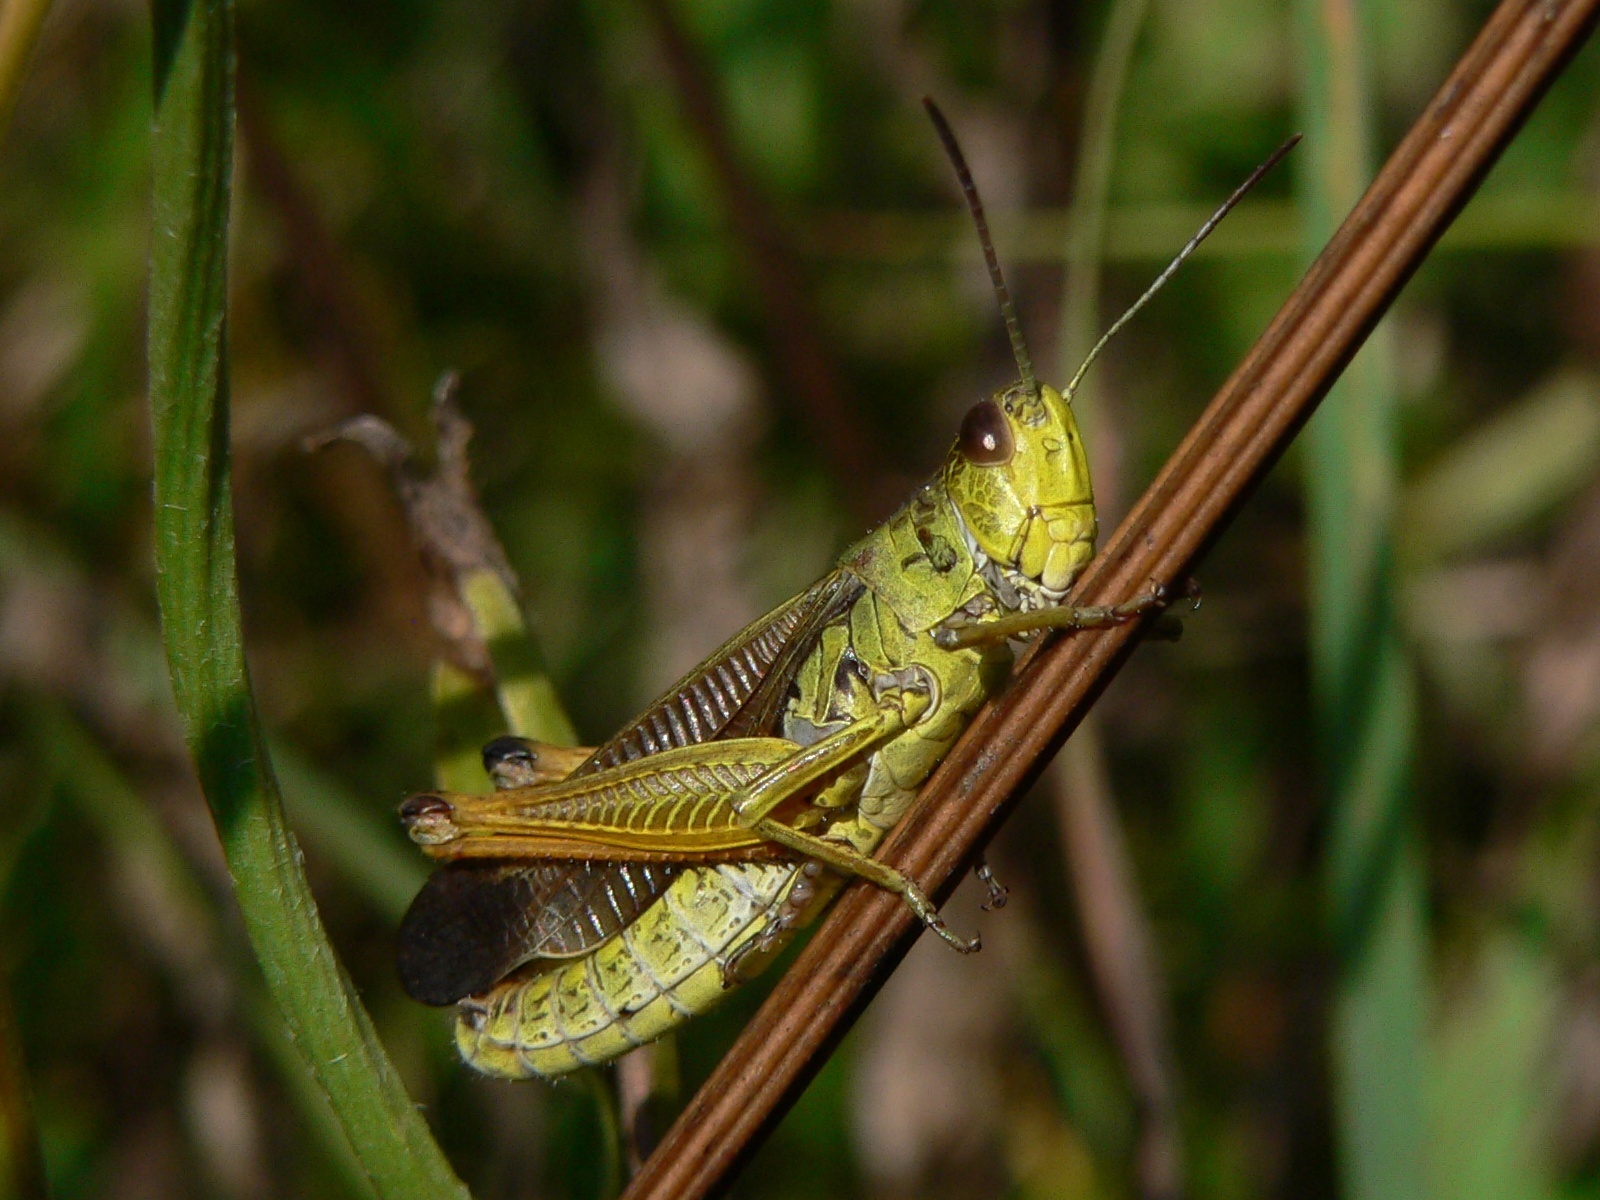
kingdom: Animalia
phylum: Arthropoda
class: Insecta
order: Orthoptera
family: Acrididae
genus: Stauroderus
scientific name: Stauroderus scalaris
